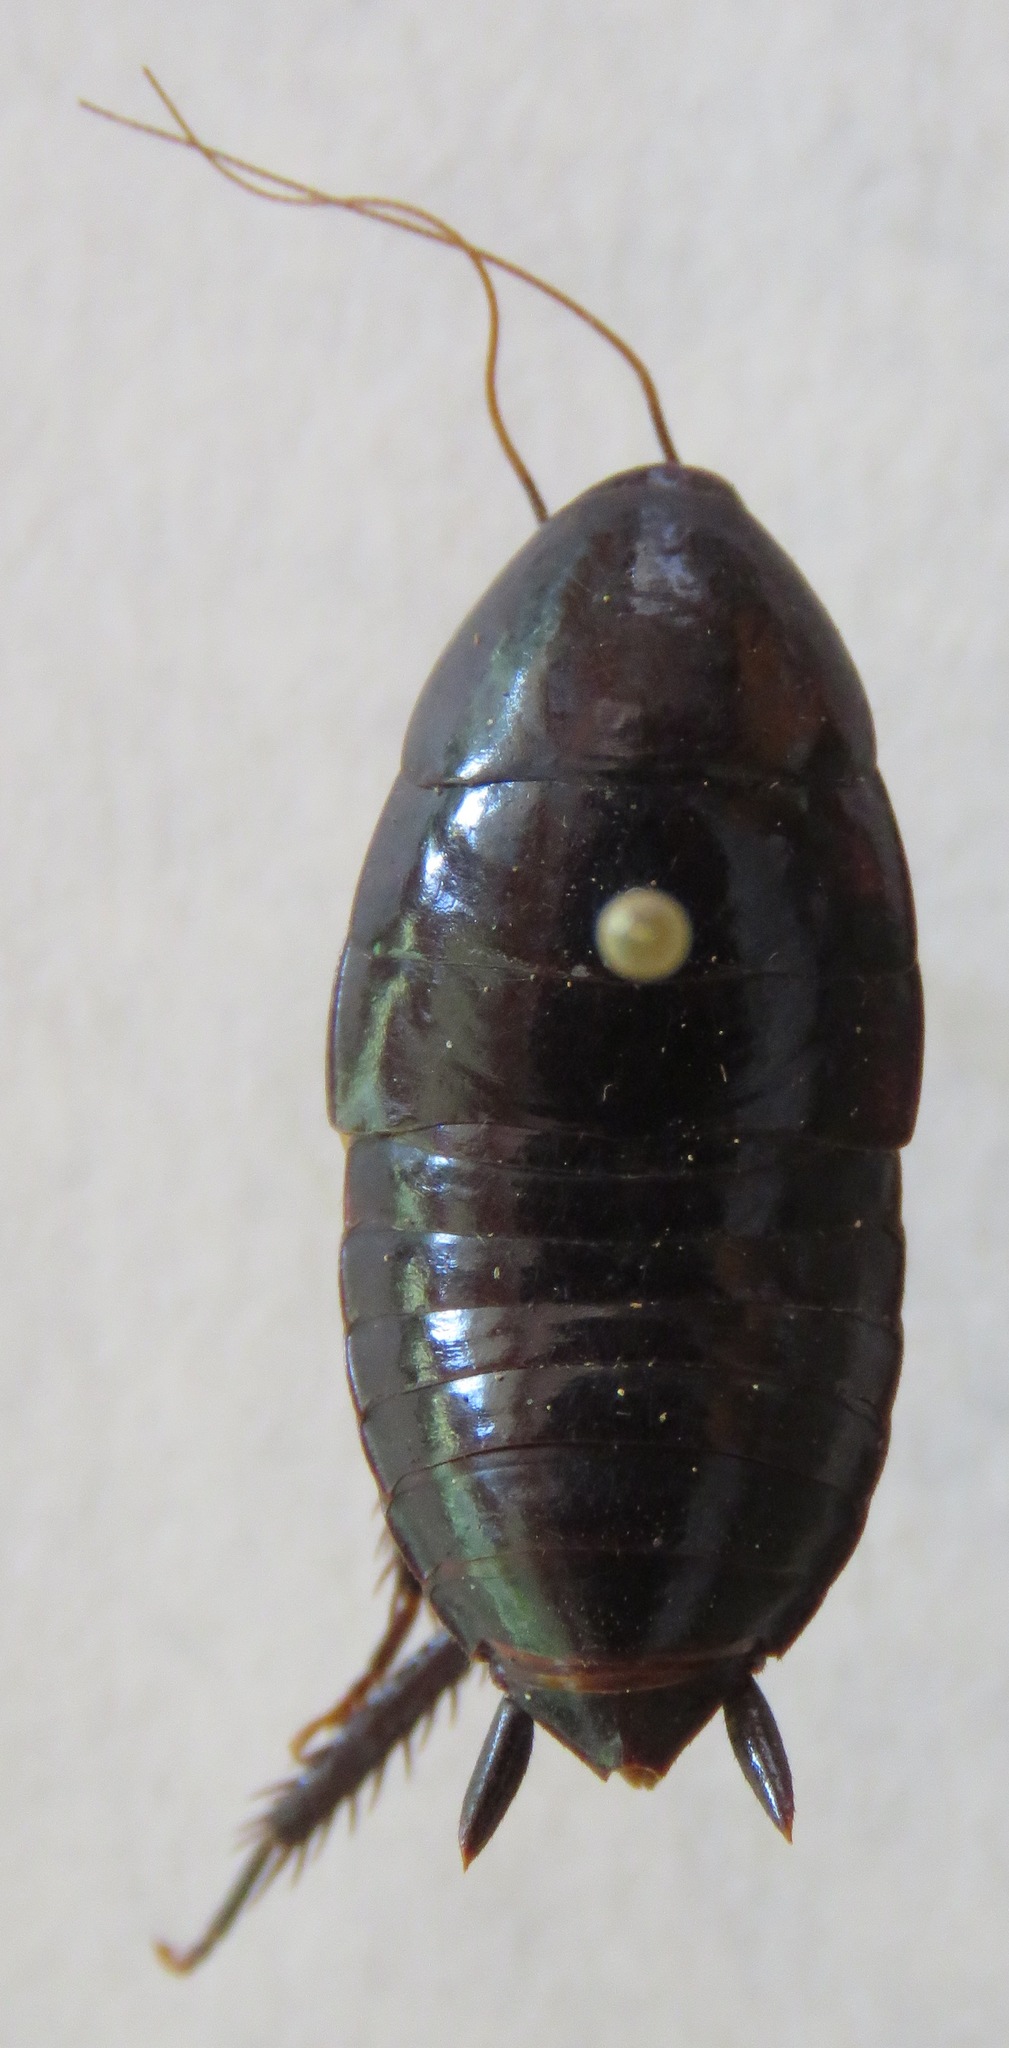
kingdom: Animalia
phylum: Arthropoda
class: Insecta
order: Blattodea
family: Lamproblattidae
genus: Lamproblatta
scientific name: Lamproblatta albipalpus
